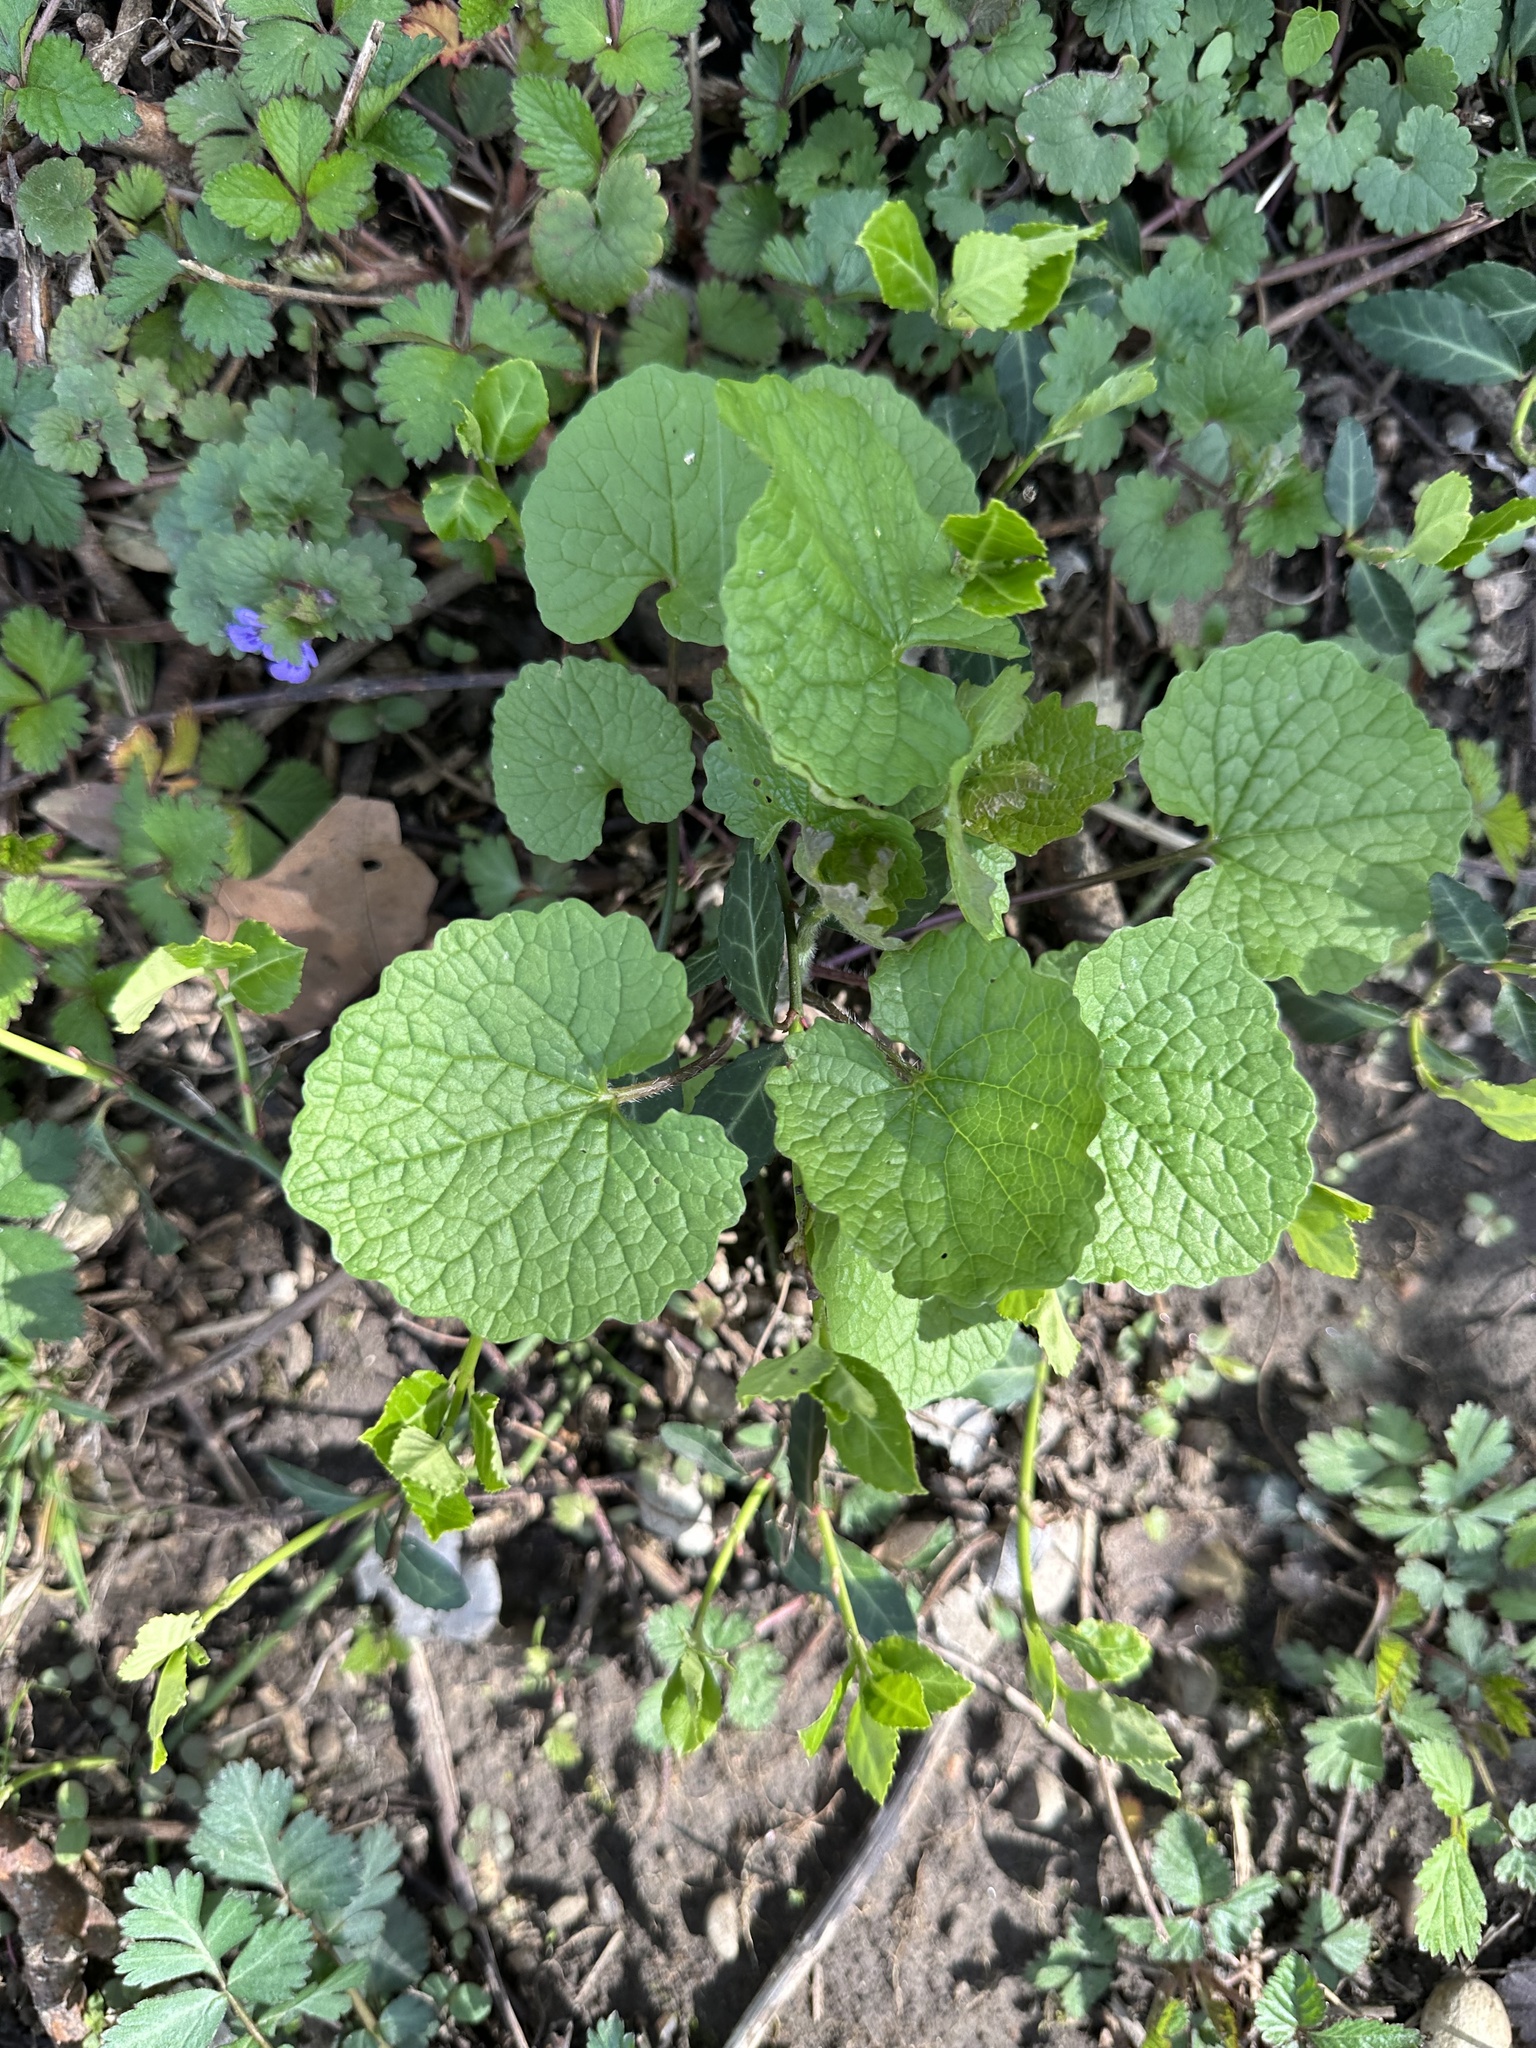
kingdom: Plantae
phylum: Tracheophyta
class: Magnoliopsida
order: Brassicales
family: Brassicaceae
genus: Alliaria
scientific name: Alliaria petiolata
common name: Garlic mustard
